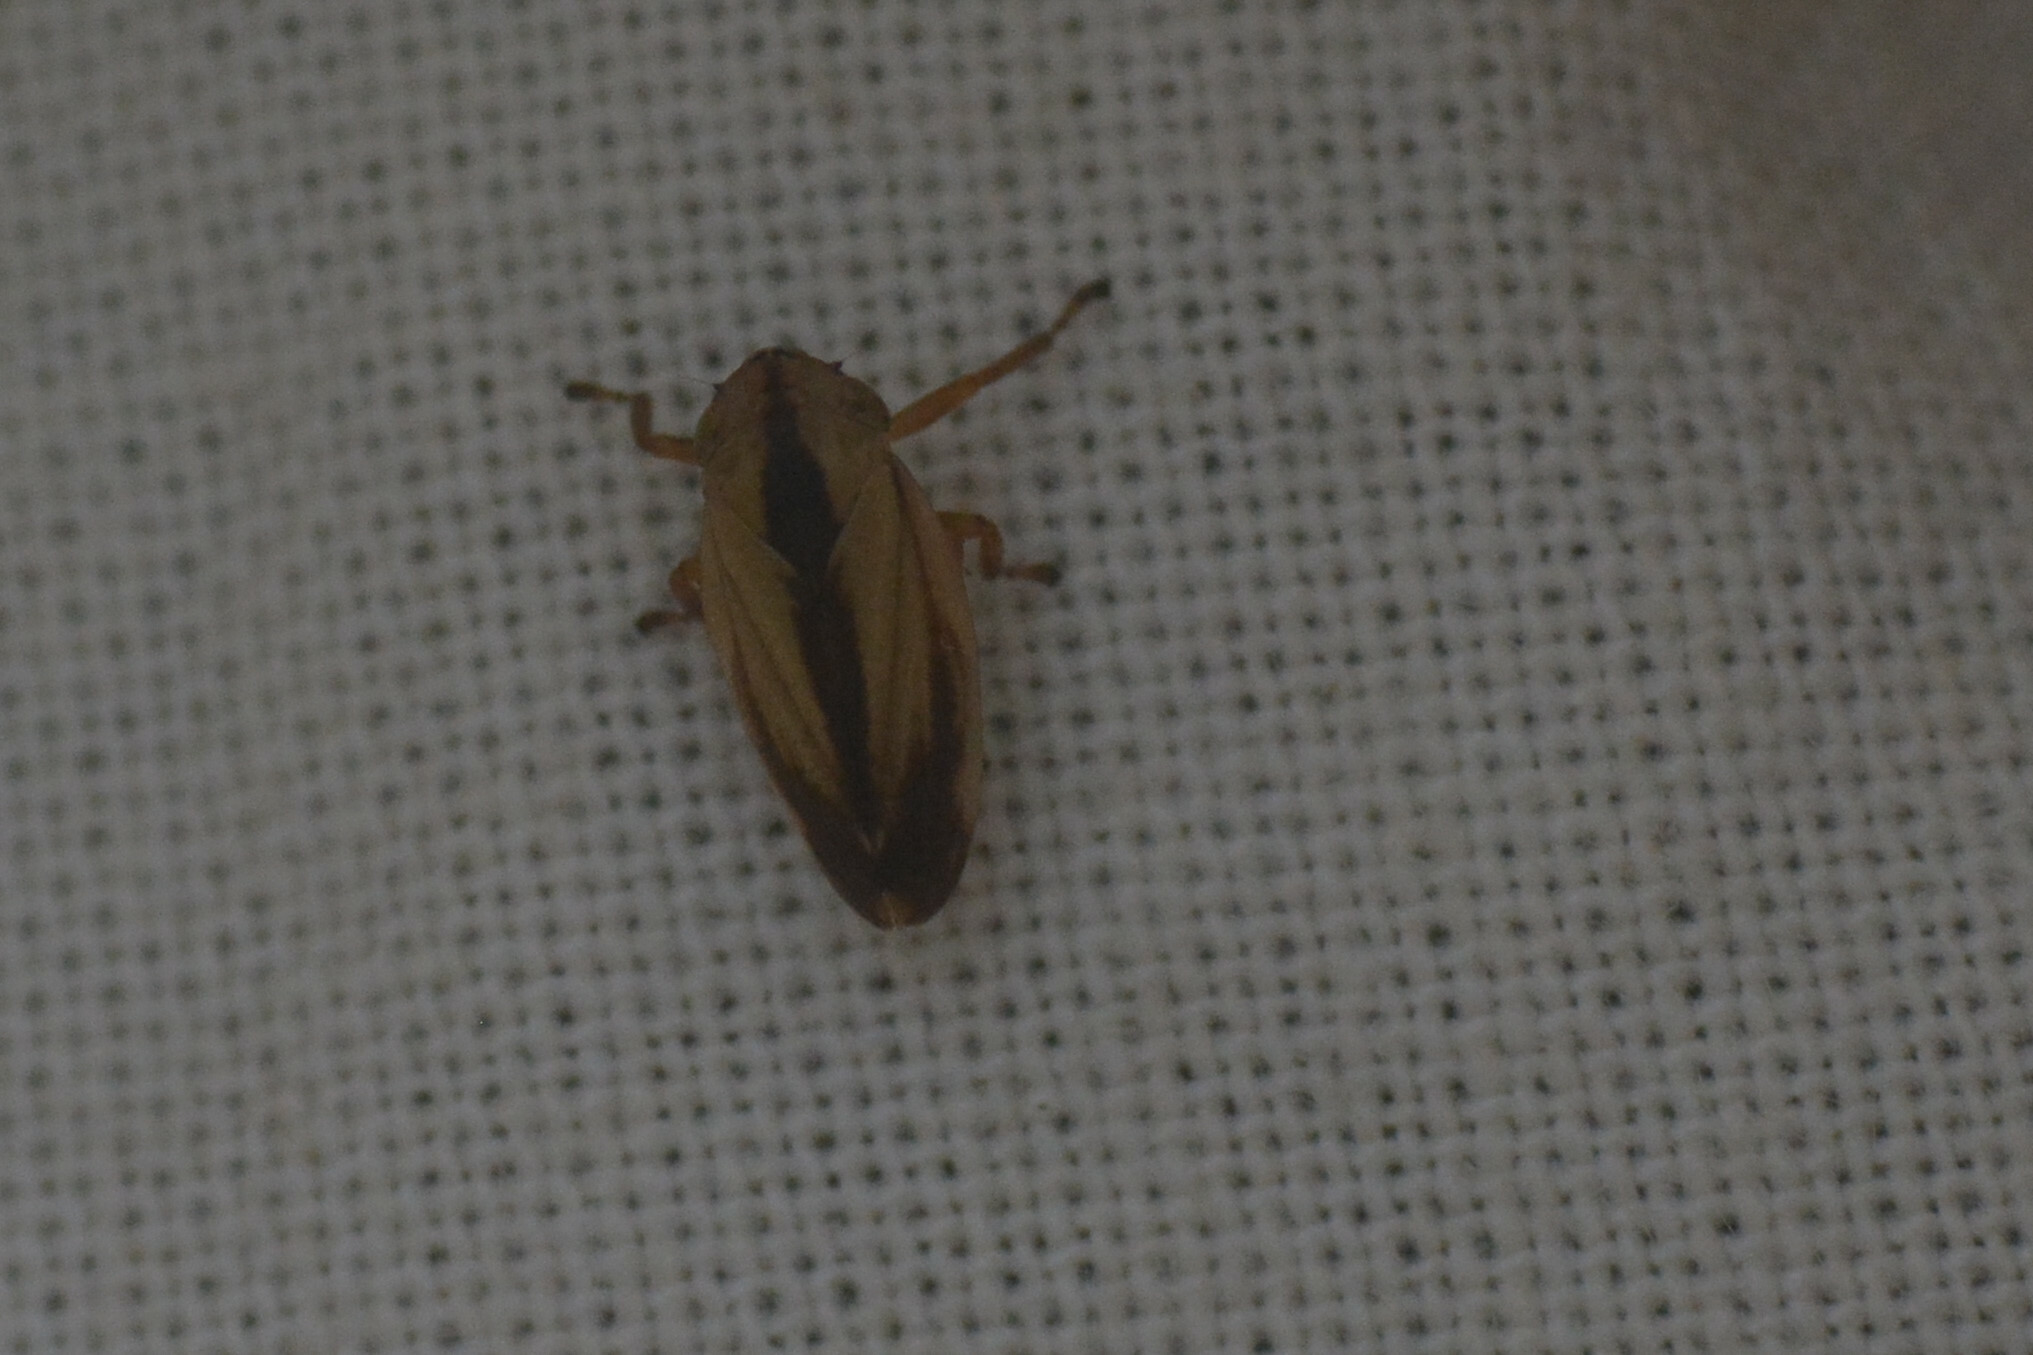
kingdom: Animalia
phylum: Arthropoda
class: Insecta
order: Hemiptera
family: Aphrophoridae
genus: Philaenus
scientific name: Philaenus spumarius
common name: Meadow spittlebug
